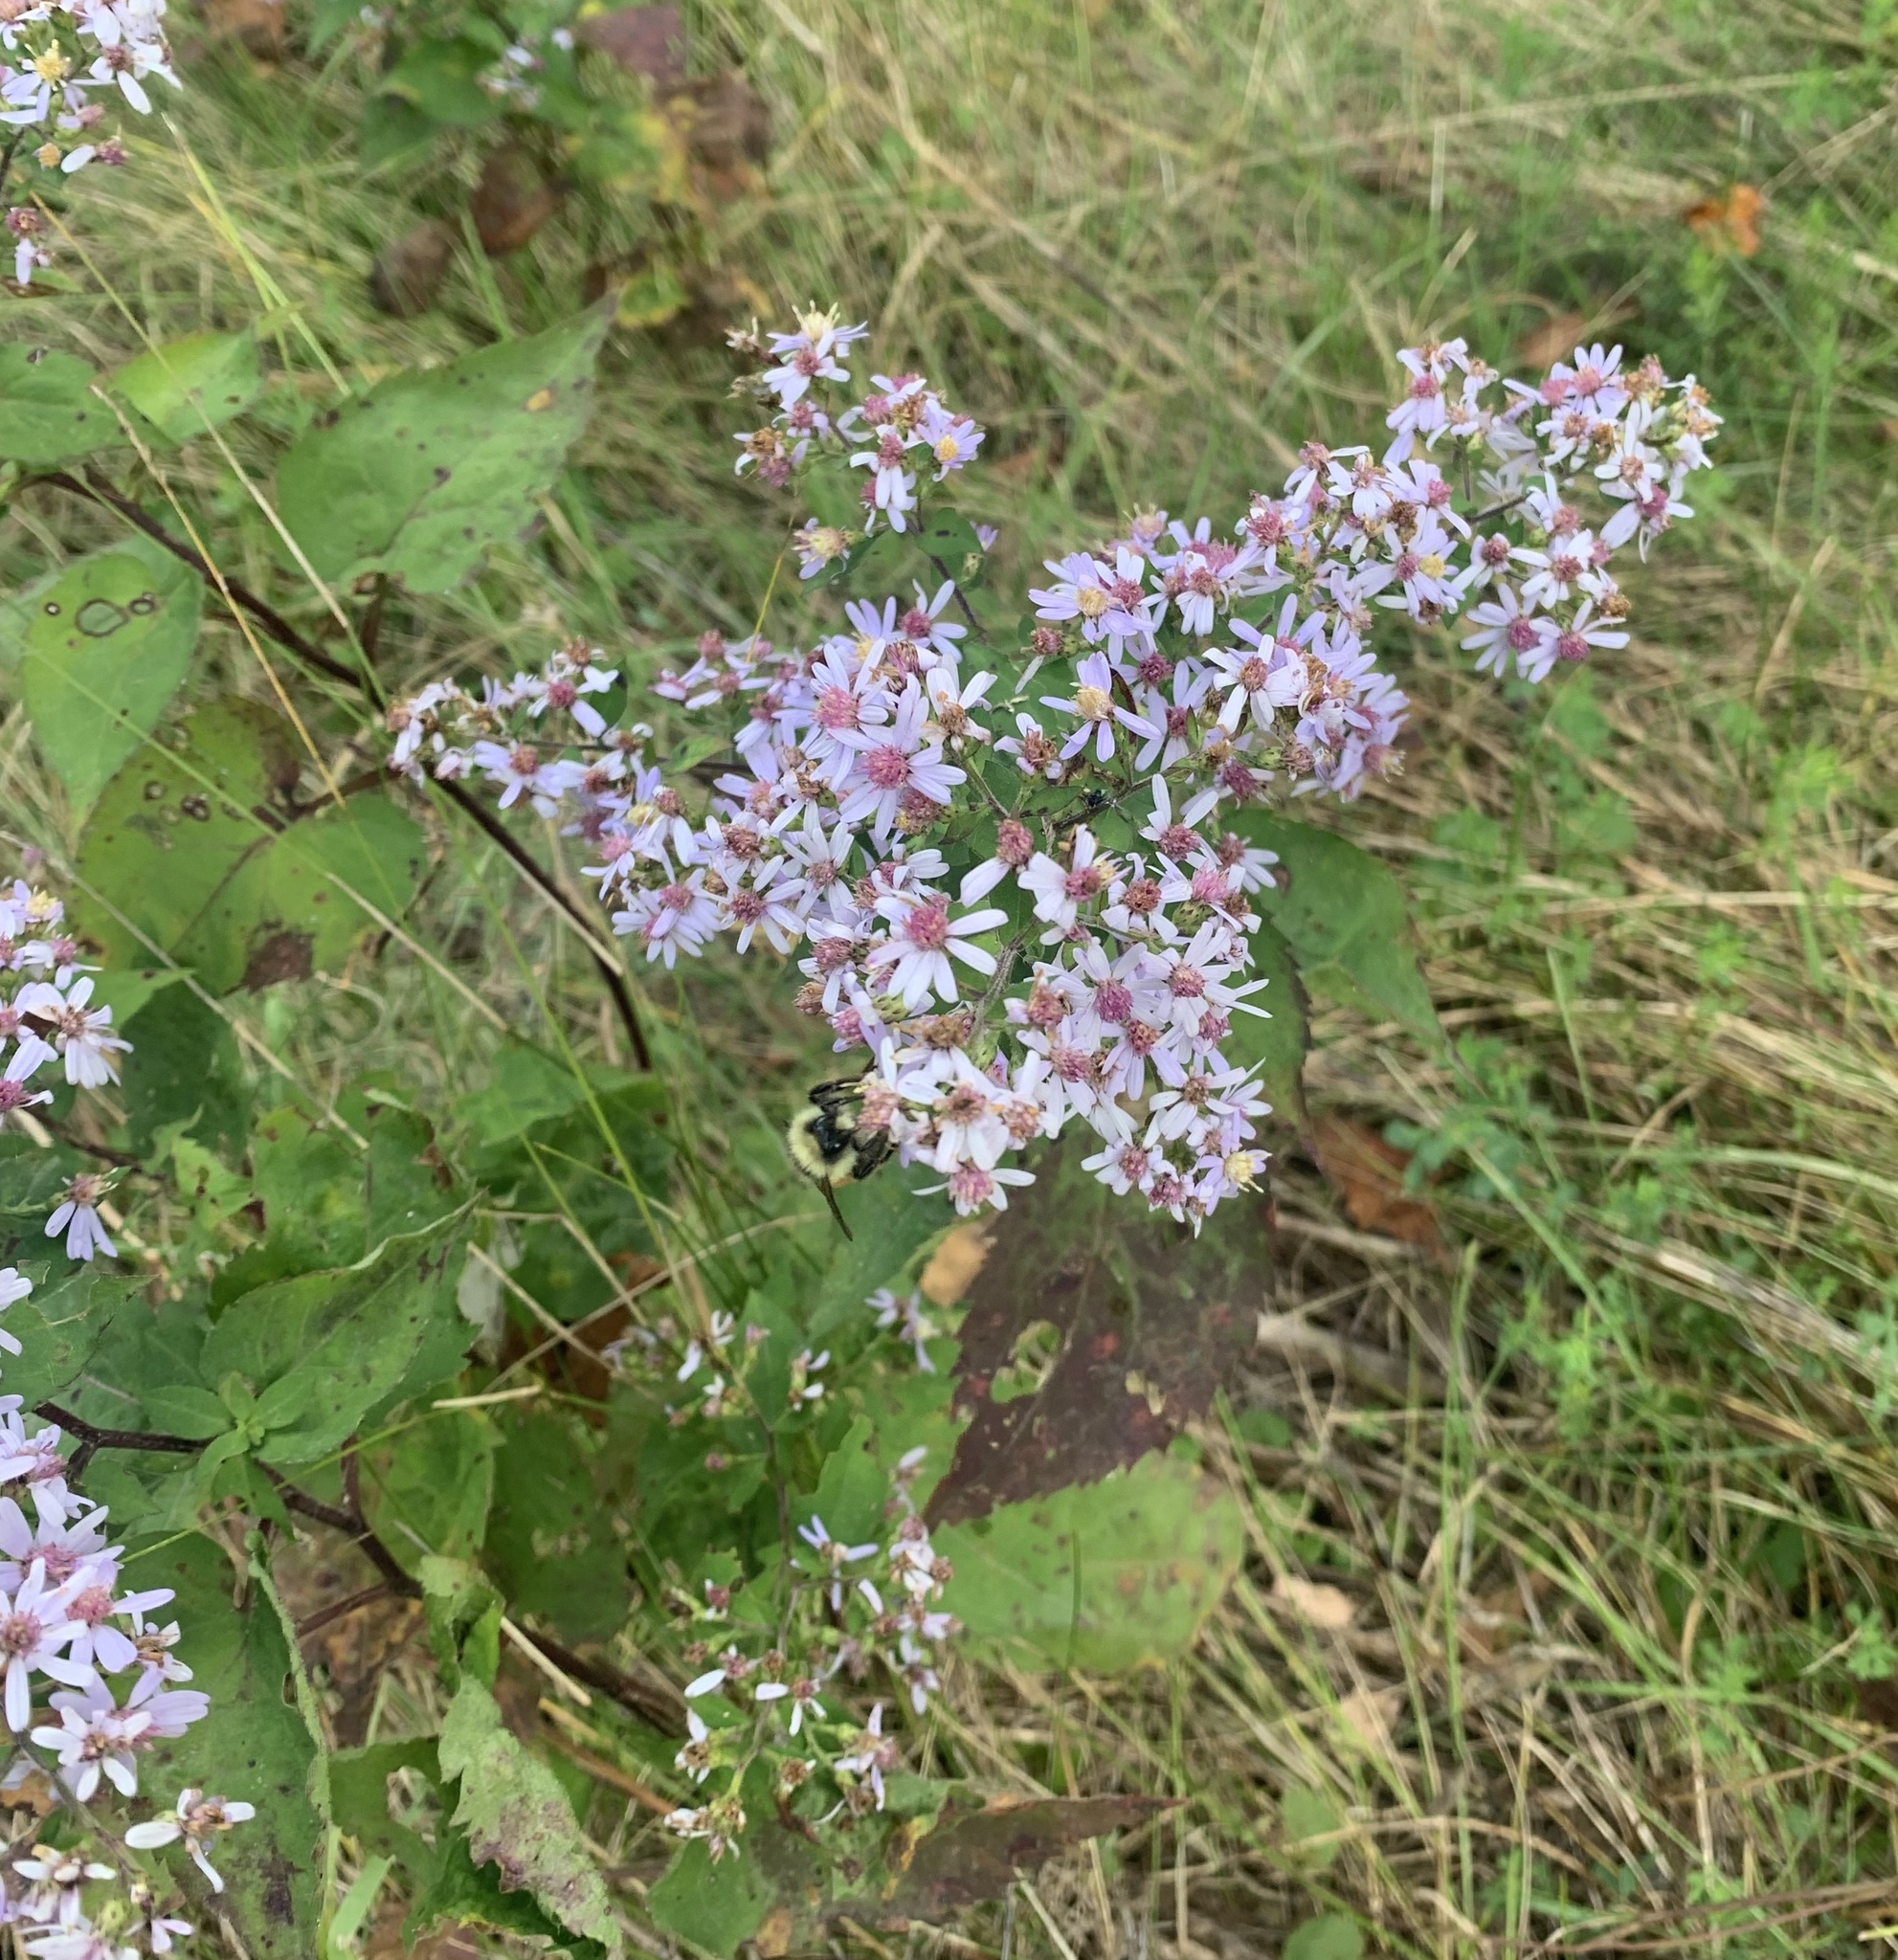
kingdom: Plantae
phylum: Tracheophyta
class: Magnoliopsida
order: Asterales
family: Asteraceae
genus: Symphyotrichum
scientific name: Symphyotrichum cordifolium
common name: Beeweed
